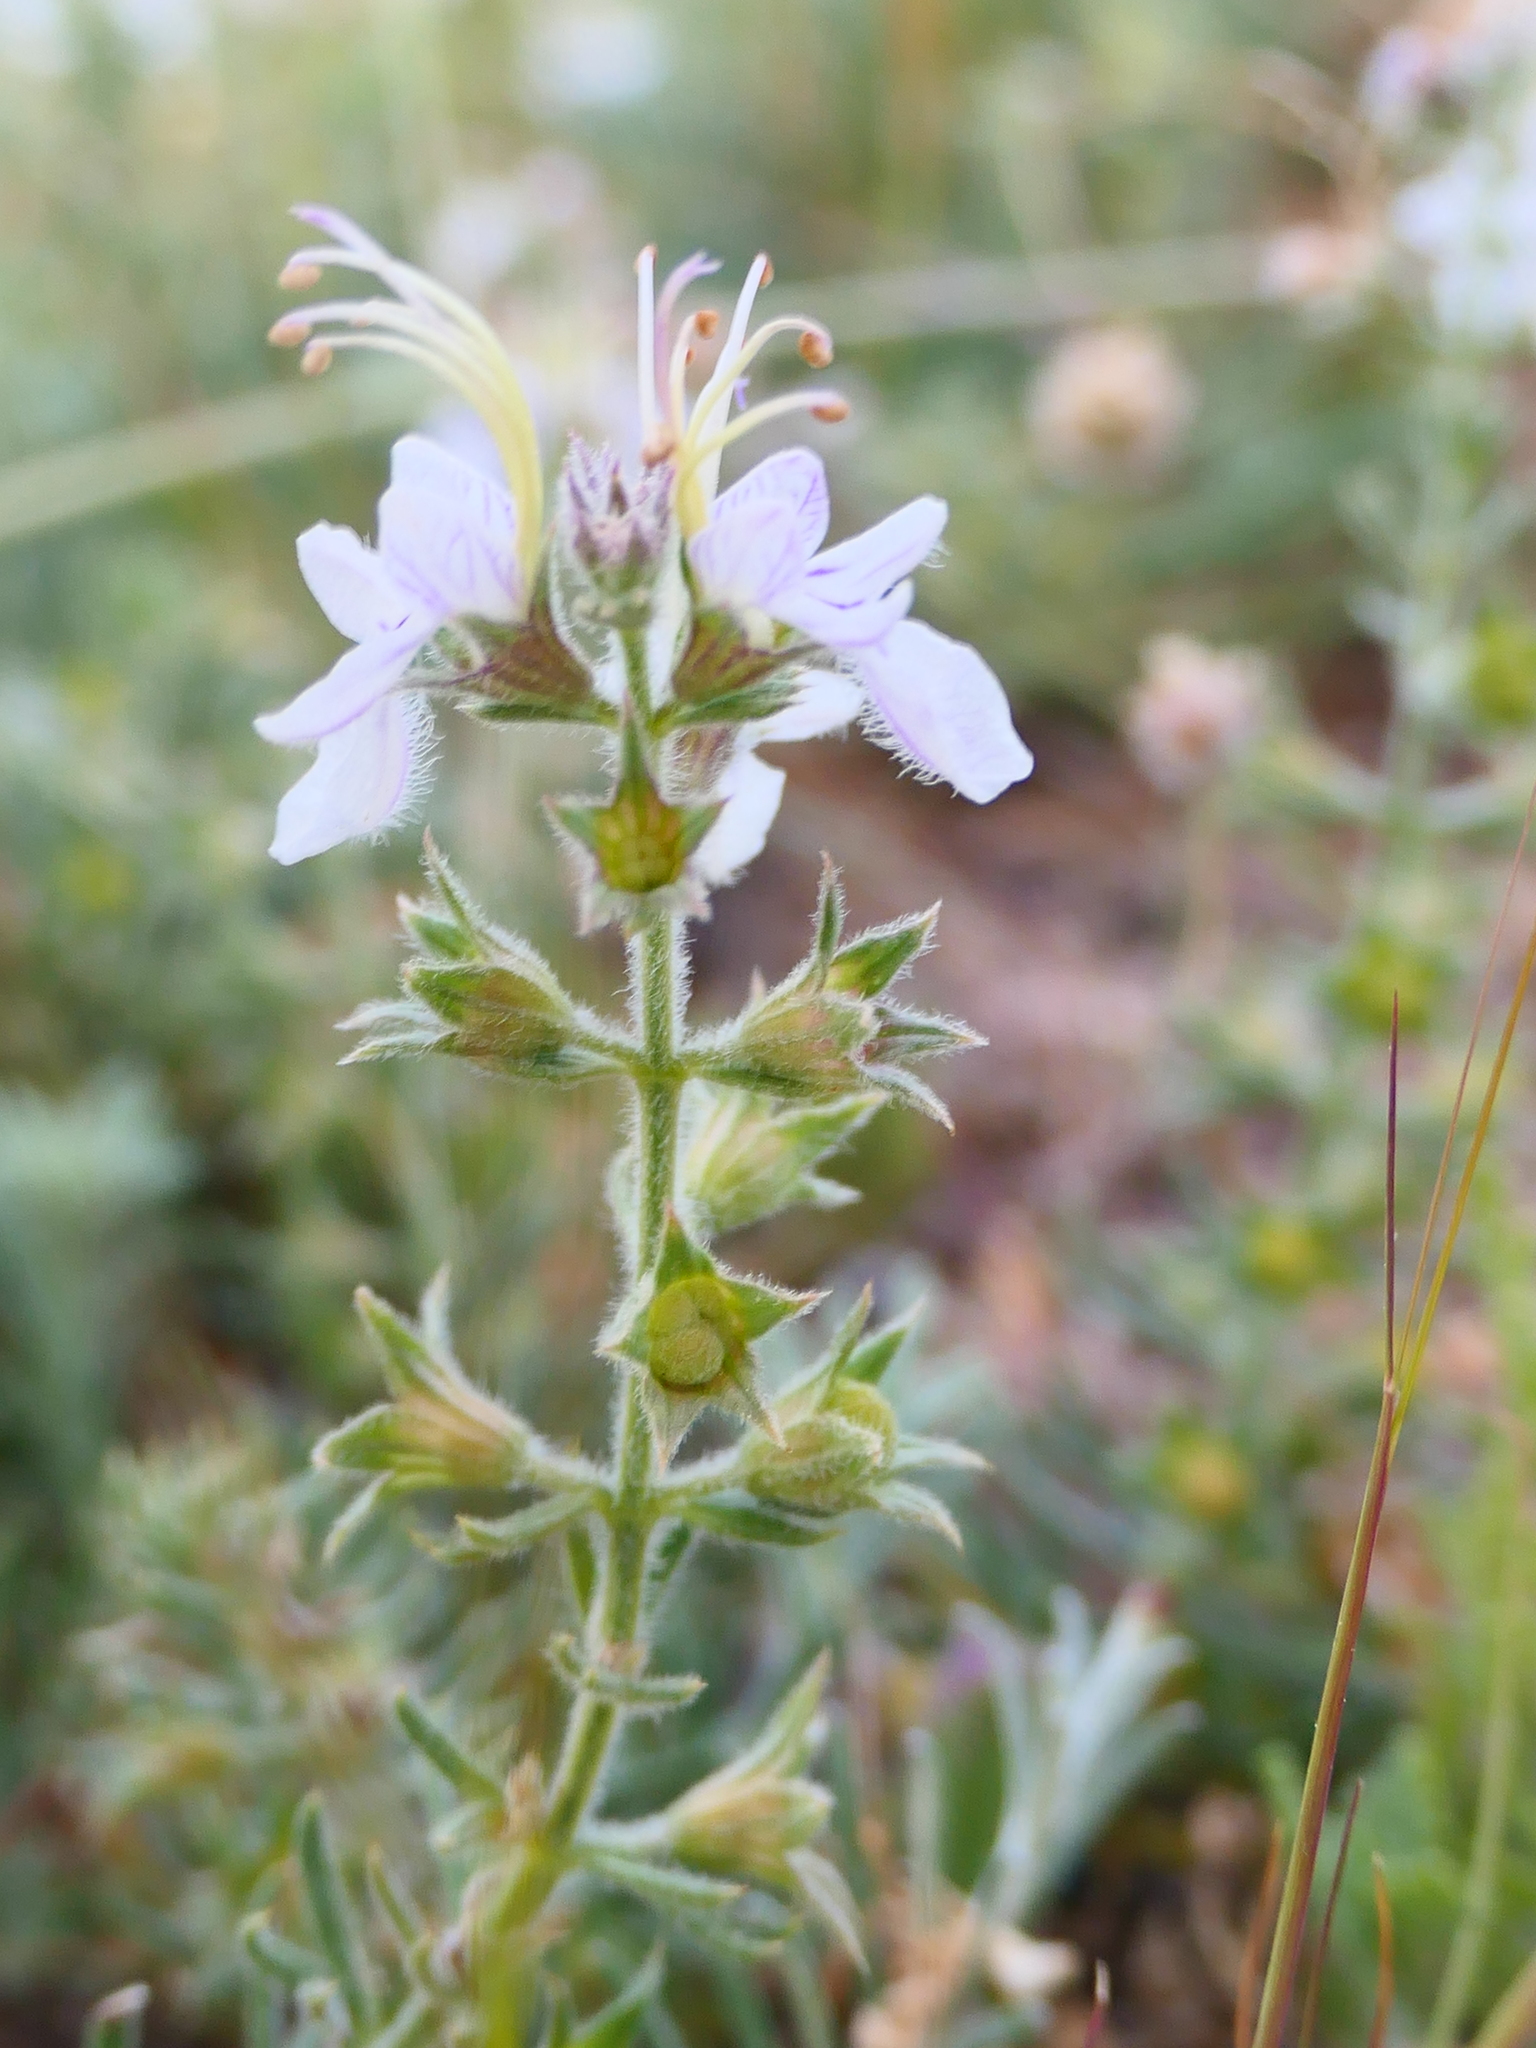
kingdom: Plantae
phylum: Tracheophyta
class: Magnoliopsida
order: Lamiales
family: Lamiaceae
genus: Teucrium
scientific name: Teucrium pseudochamaepitys
